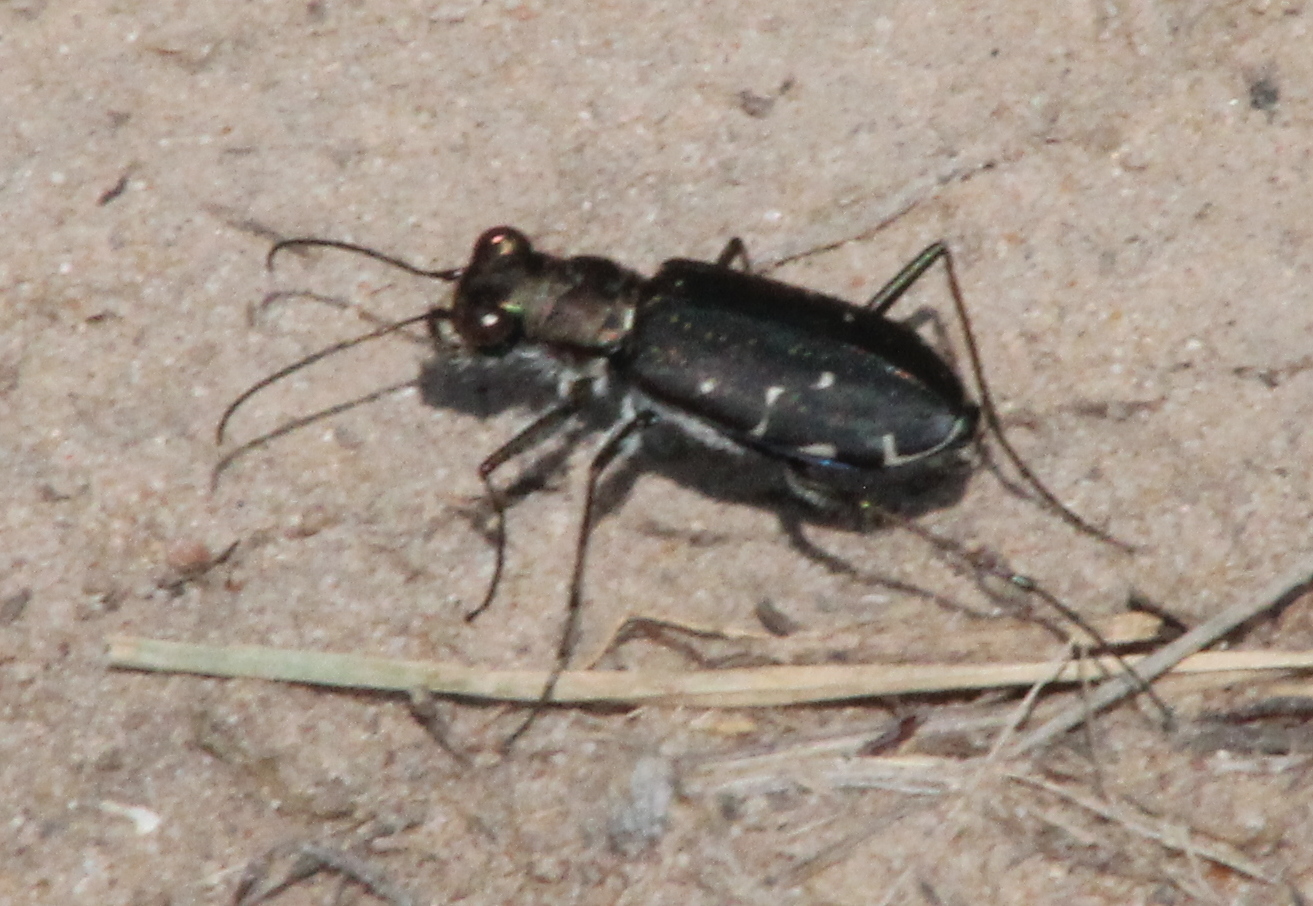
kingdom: Animalia
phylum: Arthropoda
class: Insecta
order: Coleoptera
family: Carabidae
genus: Cicindela
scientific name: Cicindela punctulata
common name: Punctured tiger beetle
